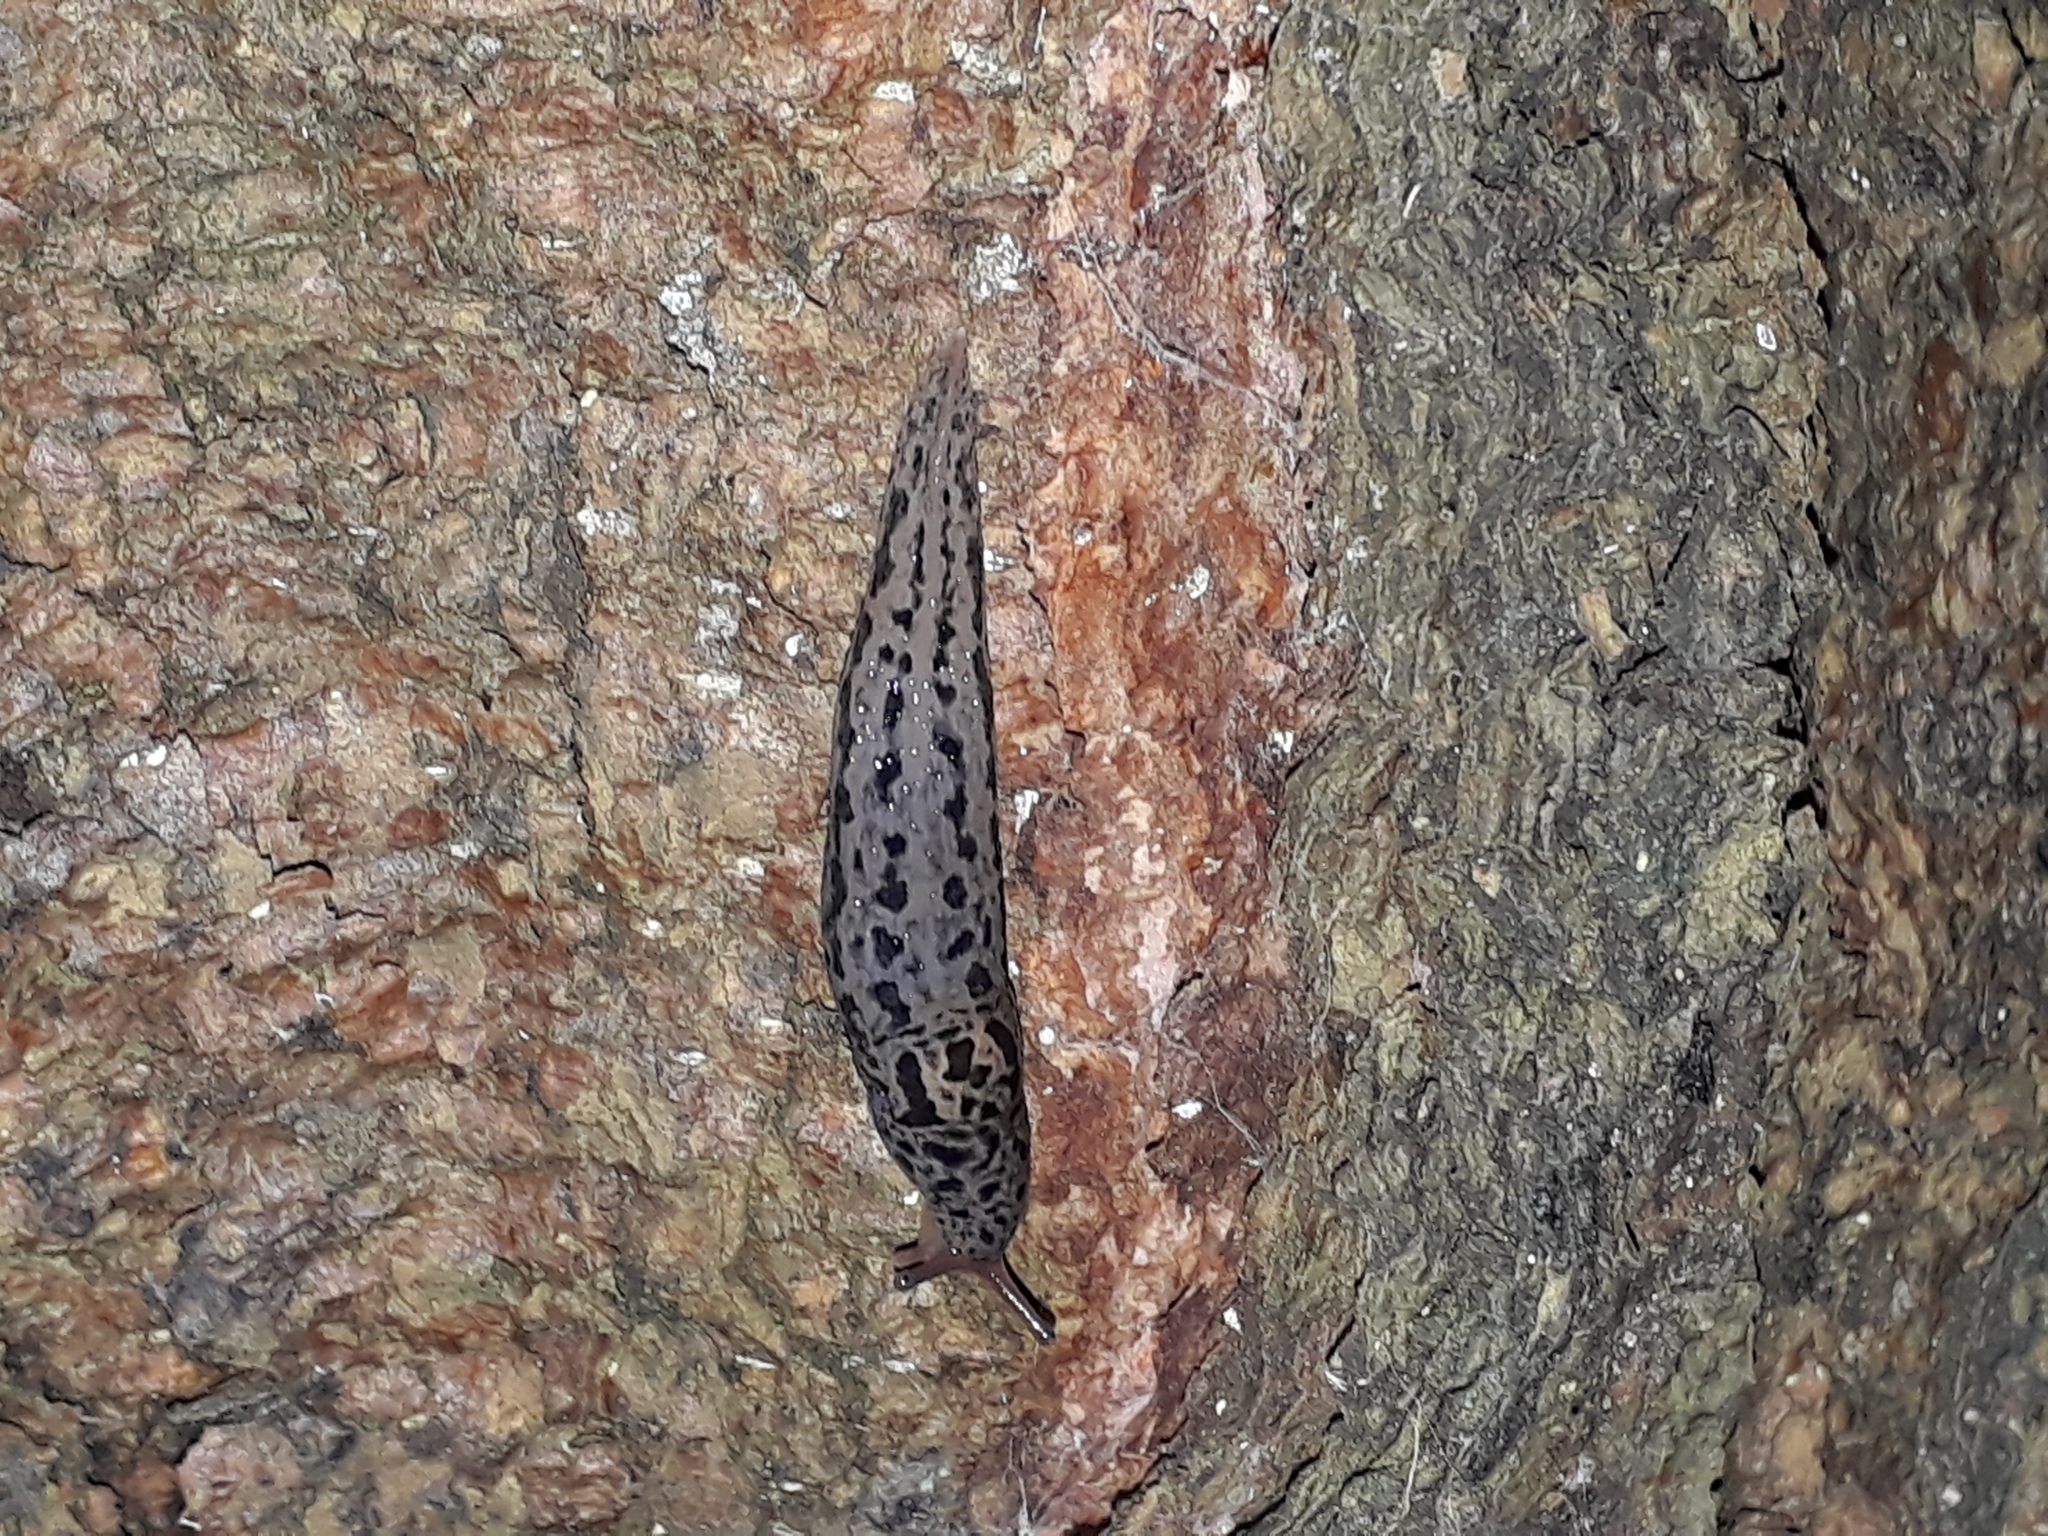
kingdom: Animalia
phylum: Mollusca
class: Gastropoda
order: Stylommatophora
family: Limacidae
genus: Limax
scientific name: Limax maximus
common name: Great grey slug
